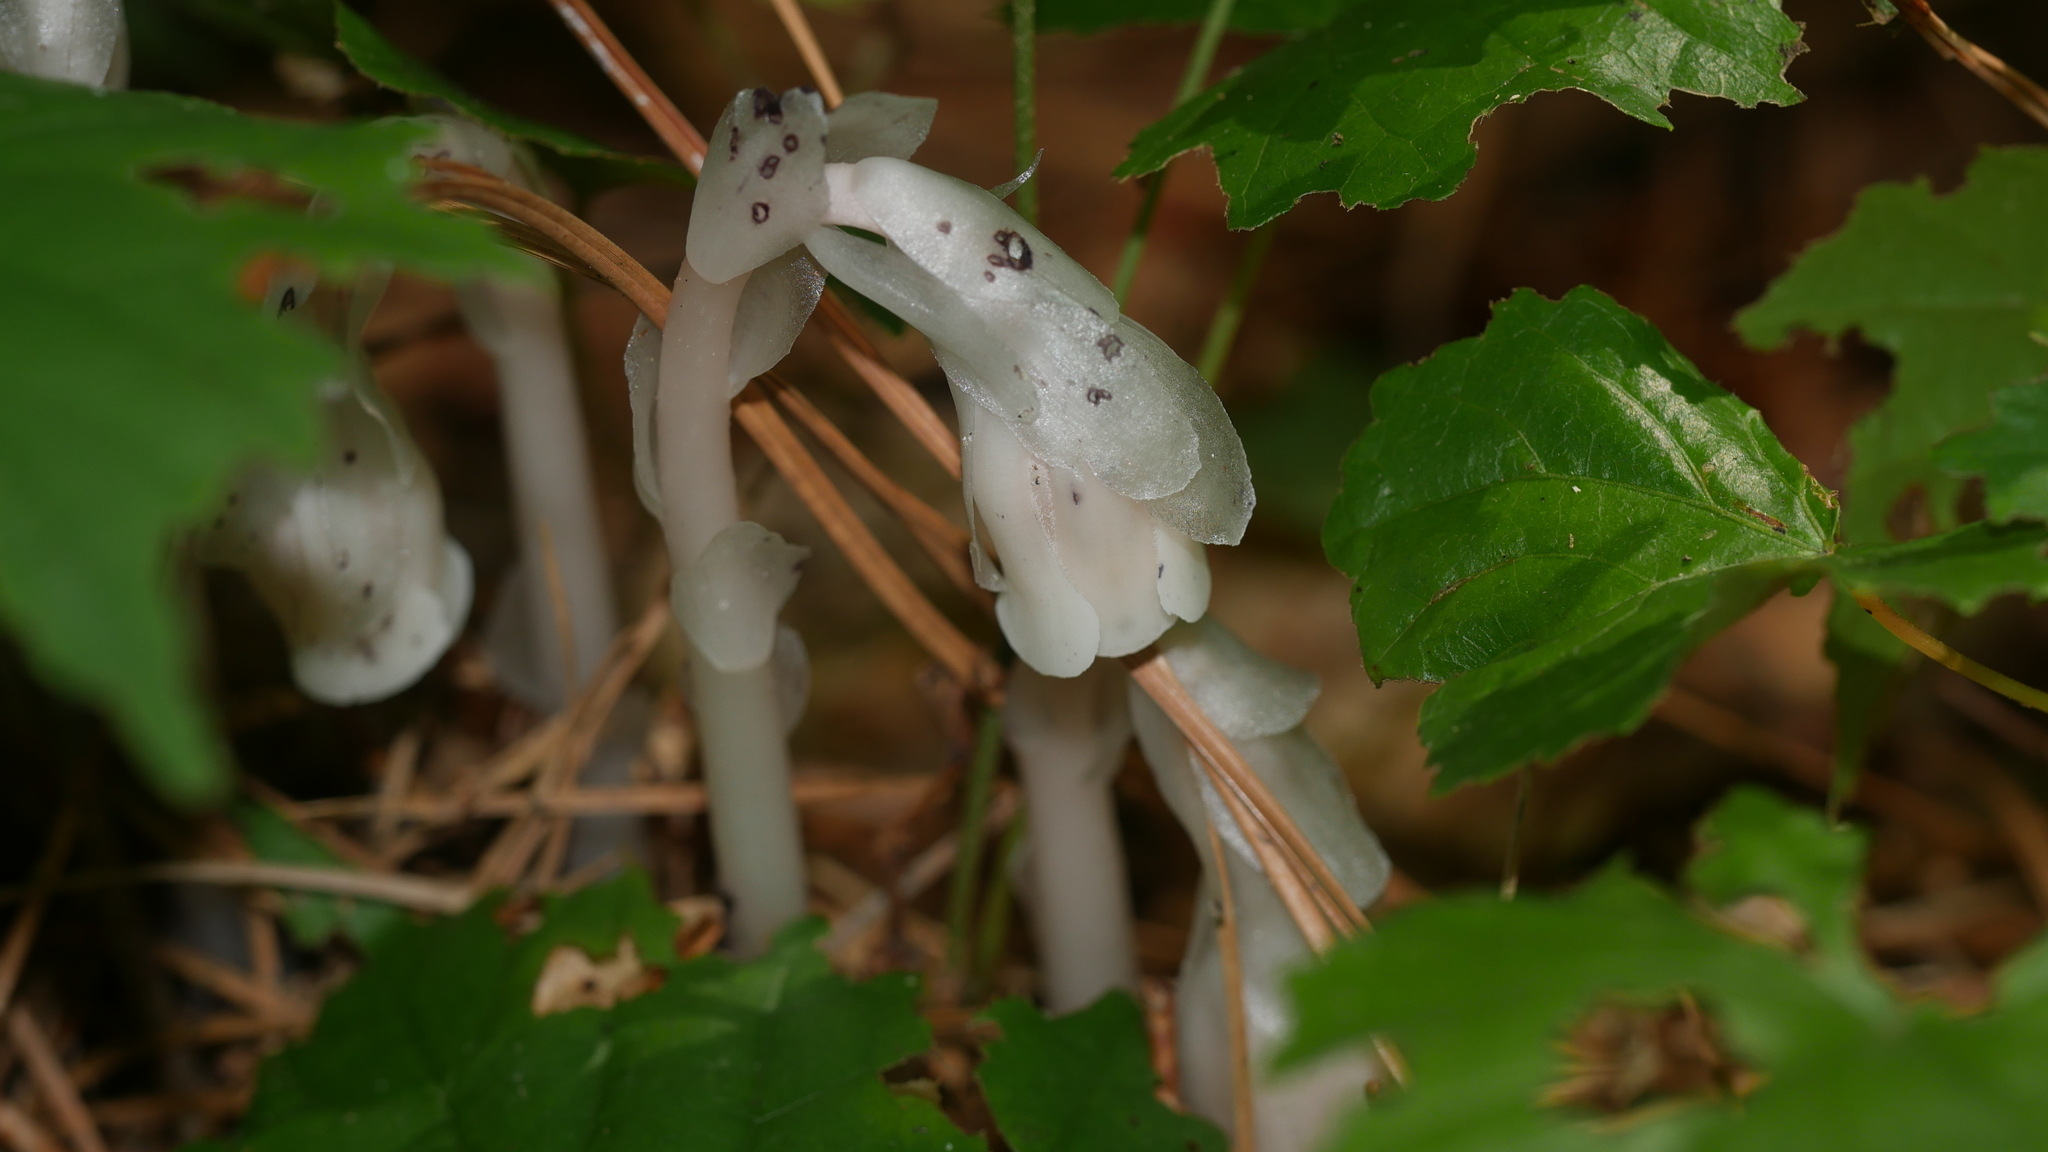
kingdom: Plantae
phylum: Tracheophyta
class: Magnoliopsida
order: Ericales
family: Ericaceae
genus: Monotropa
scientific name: Monotropa uniflora
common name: Convulsion root
